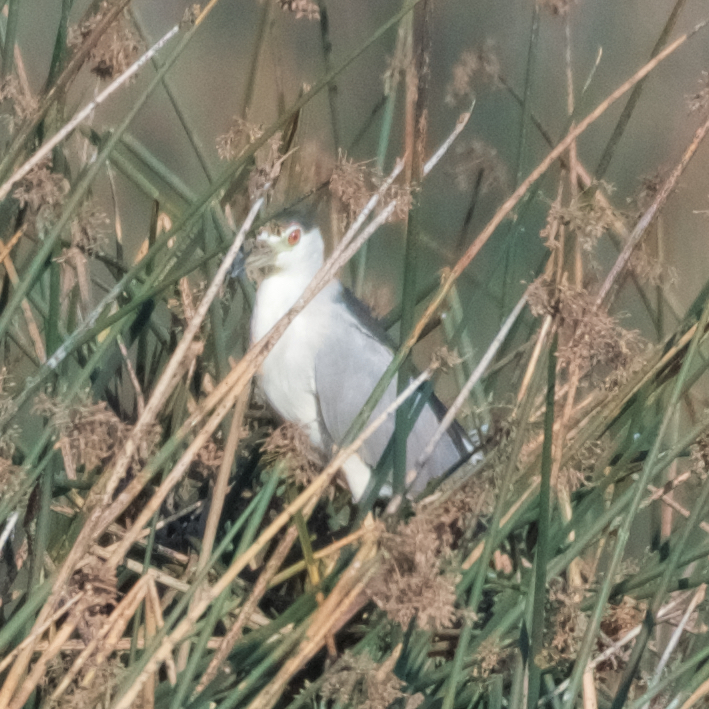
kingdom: Animalia
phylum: Chordata
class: Aves
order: Pelecaniformes
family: Ardeidae
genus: Nycticorax
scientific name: Nycticorax nycticorax
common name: Black-crowned night heron
